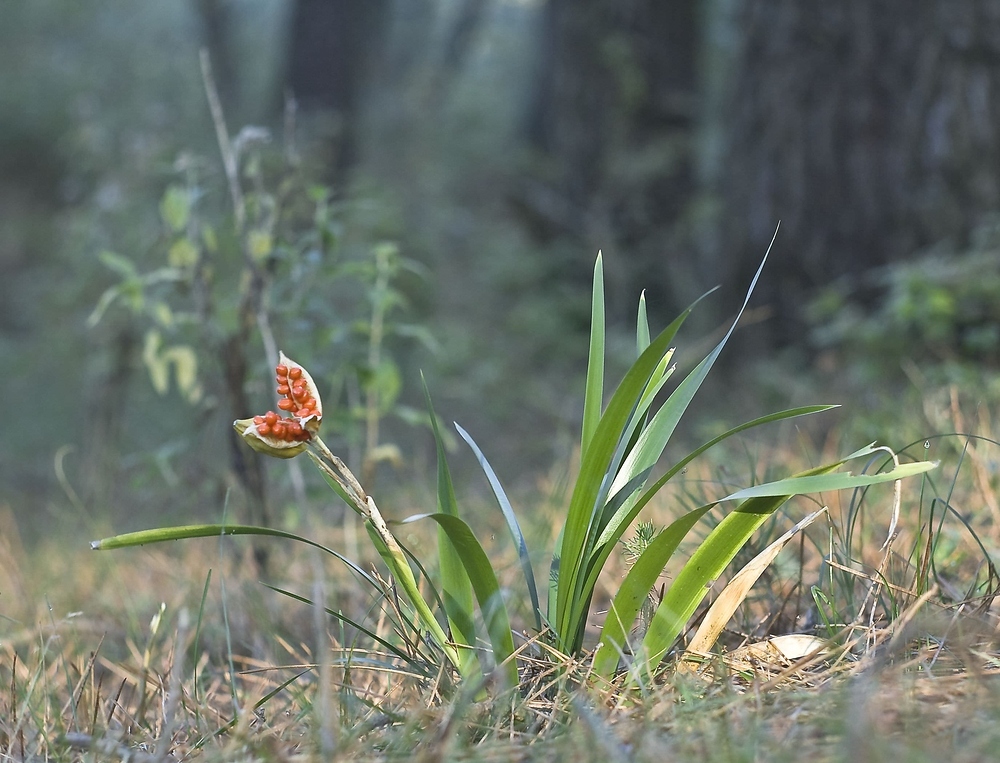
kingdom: Plantae
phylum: Tracheophyta
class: Liliopsida
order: Asparagales
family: Iridaceae
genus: Iris
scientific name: Iris foetidissima
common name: Stinking iris
